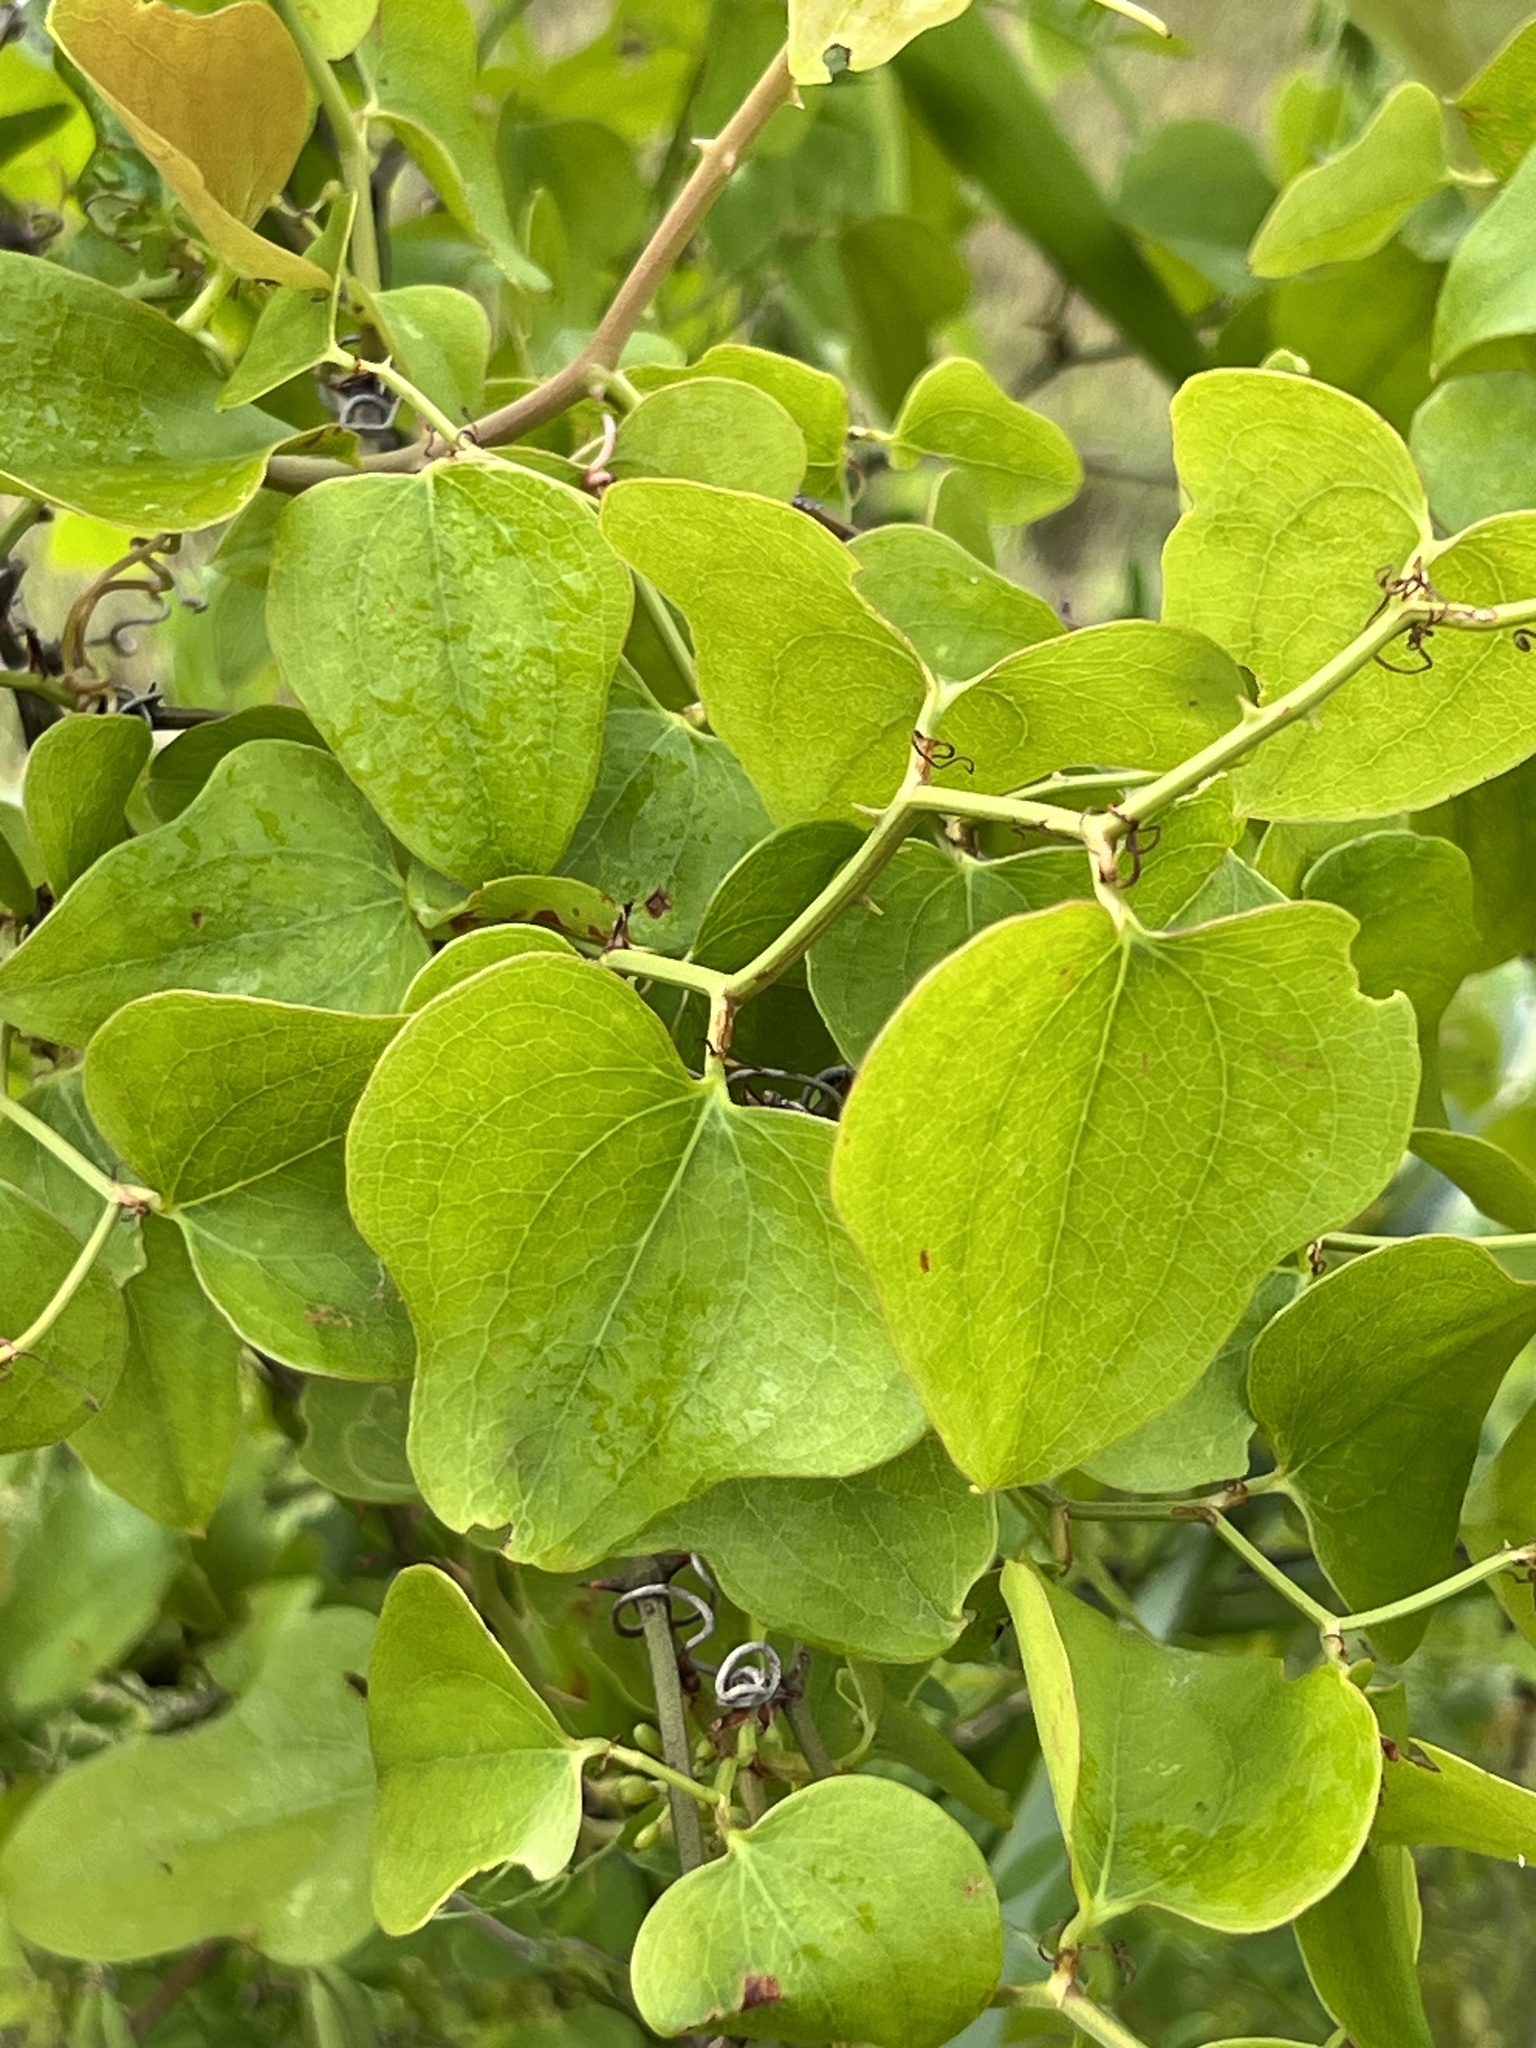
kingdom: Plantae
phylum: Tracheophyta
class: Liliopsida
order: Liliales
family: Smilacaceae
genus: Smilax
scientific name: Smilax bona-nox
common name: Catbrier
